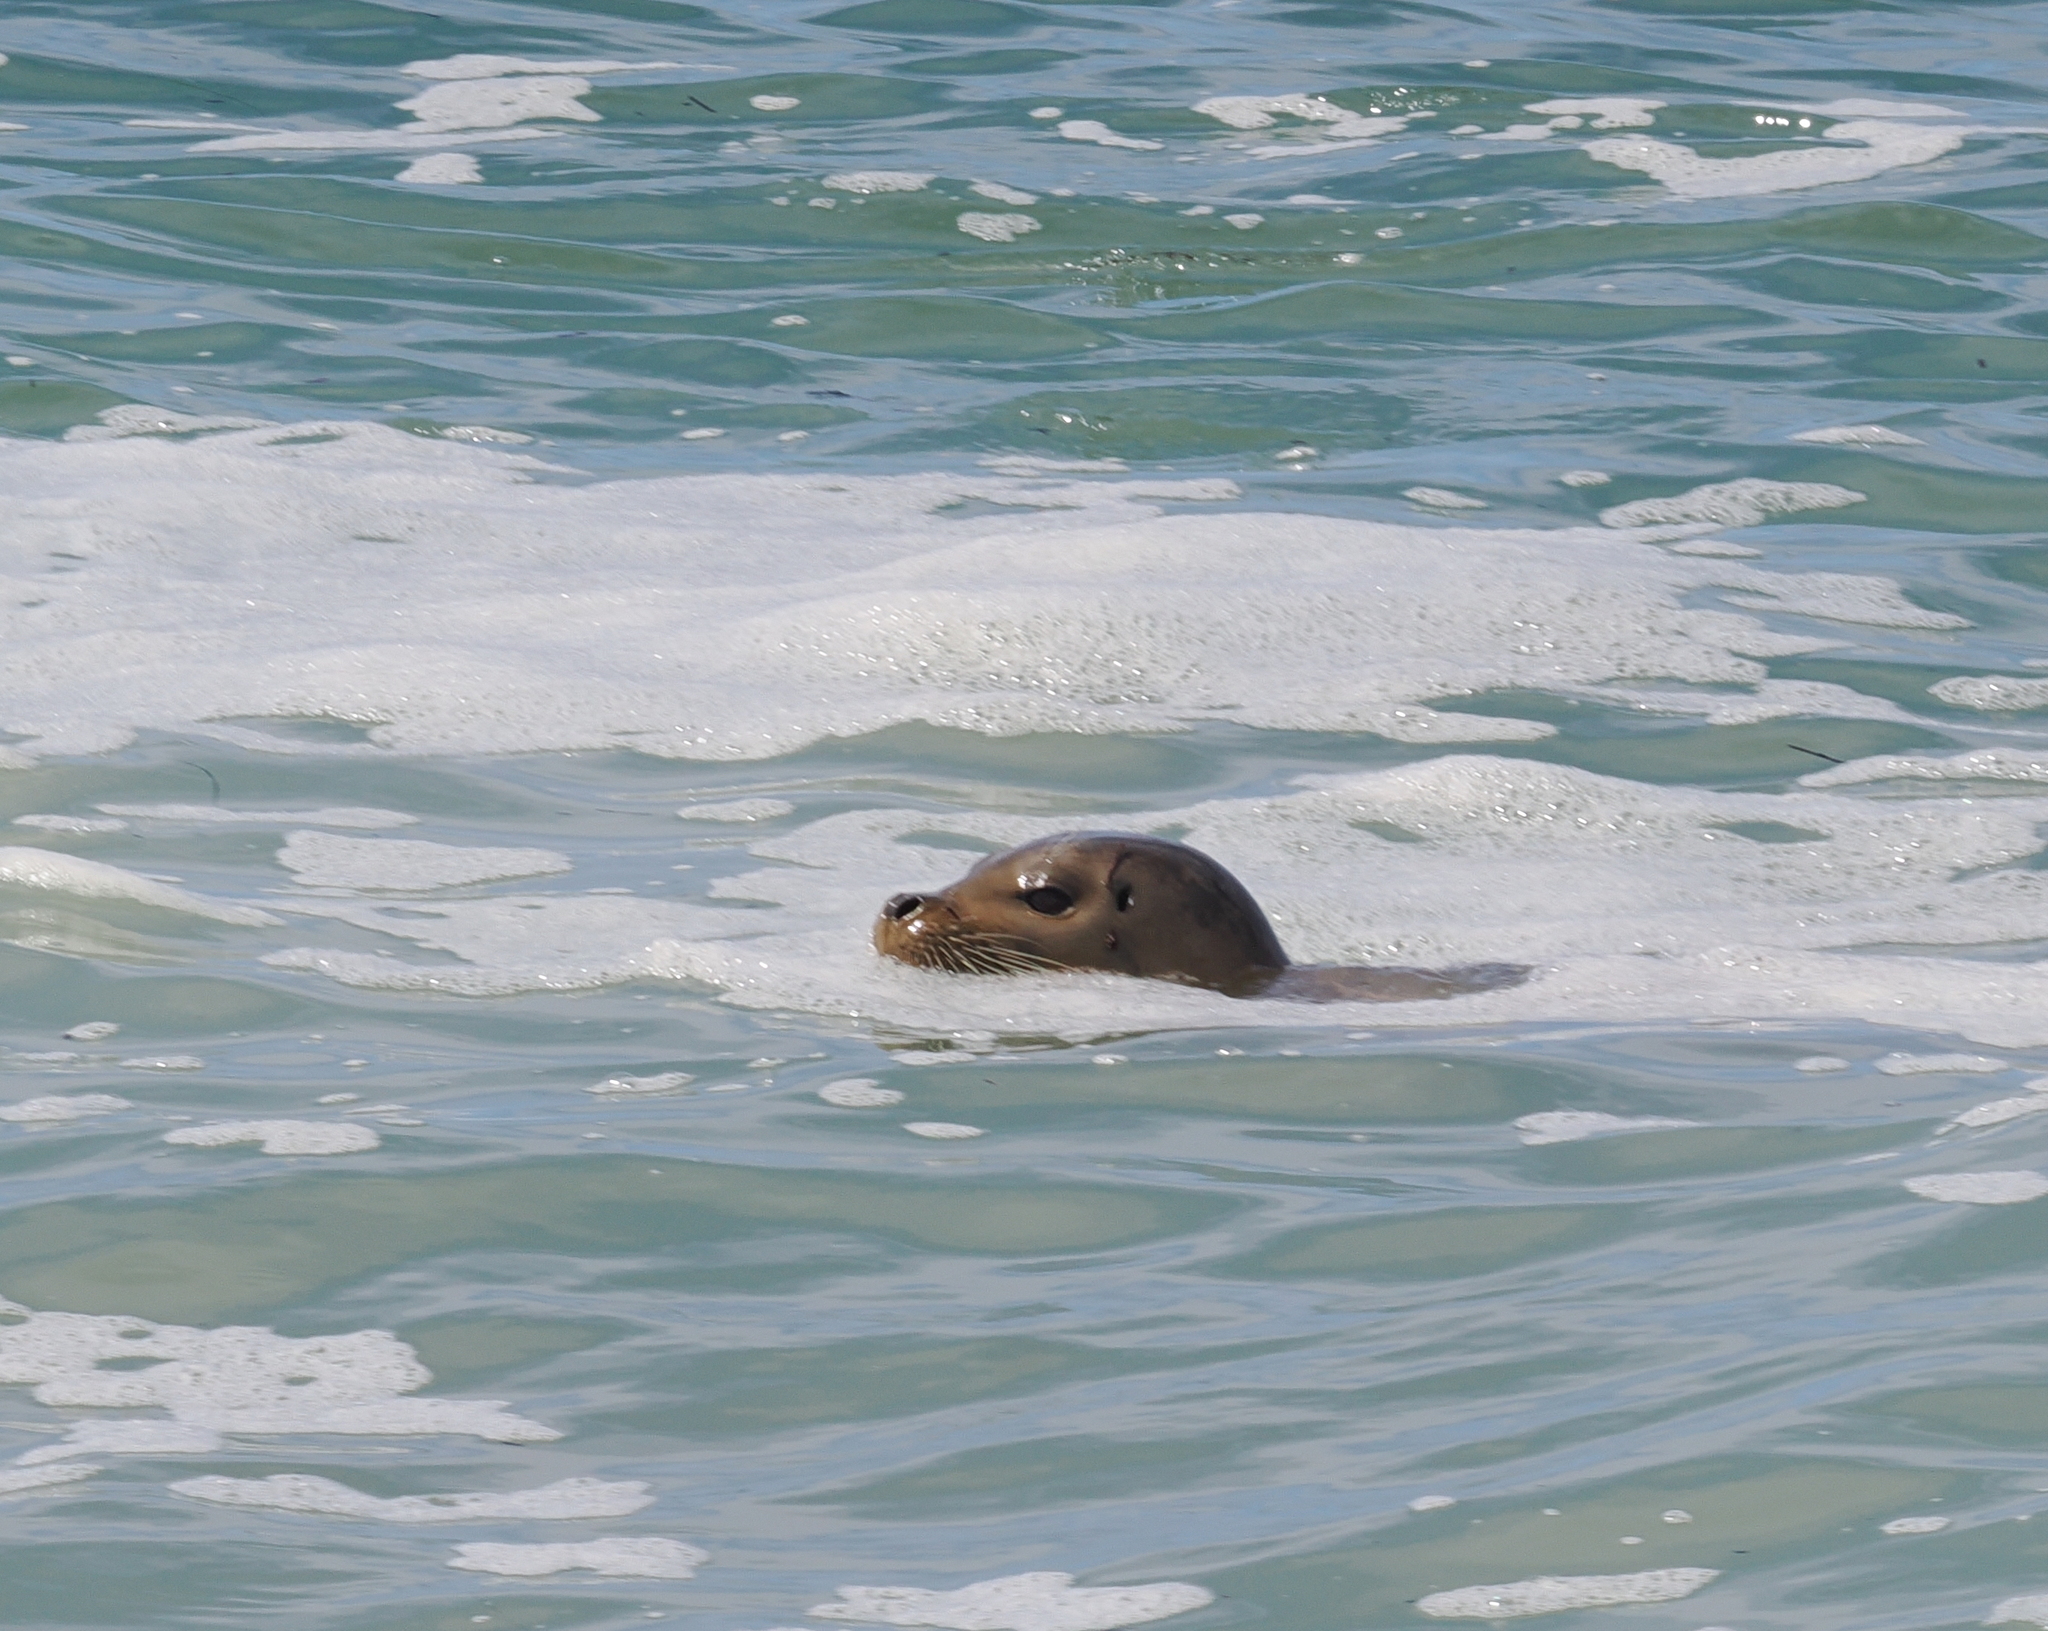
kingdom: Animalia
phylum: Chordata
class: Mammalia
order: Carnivora
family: Phocidae
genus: Phoca
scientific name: Phoca vitulina
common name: Harbor seal
